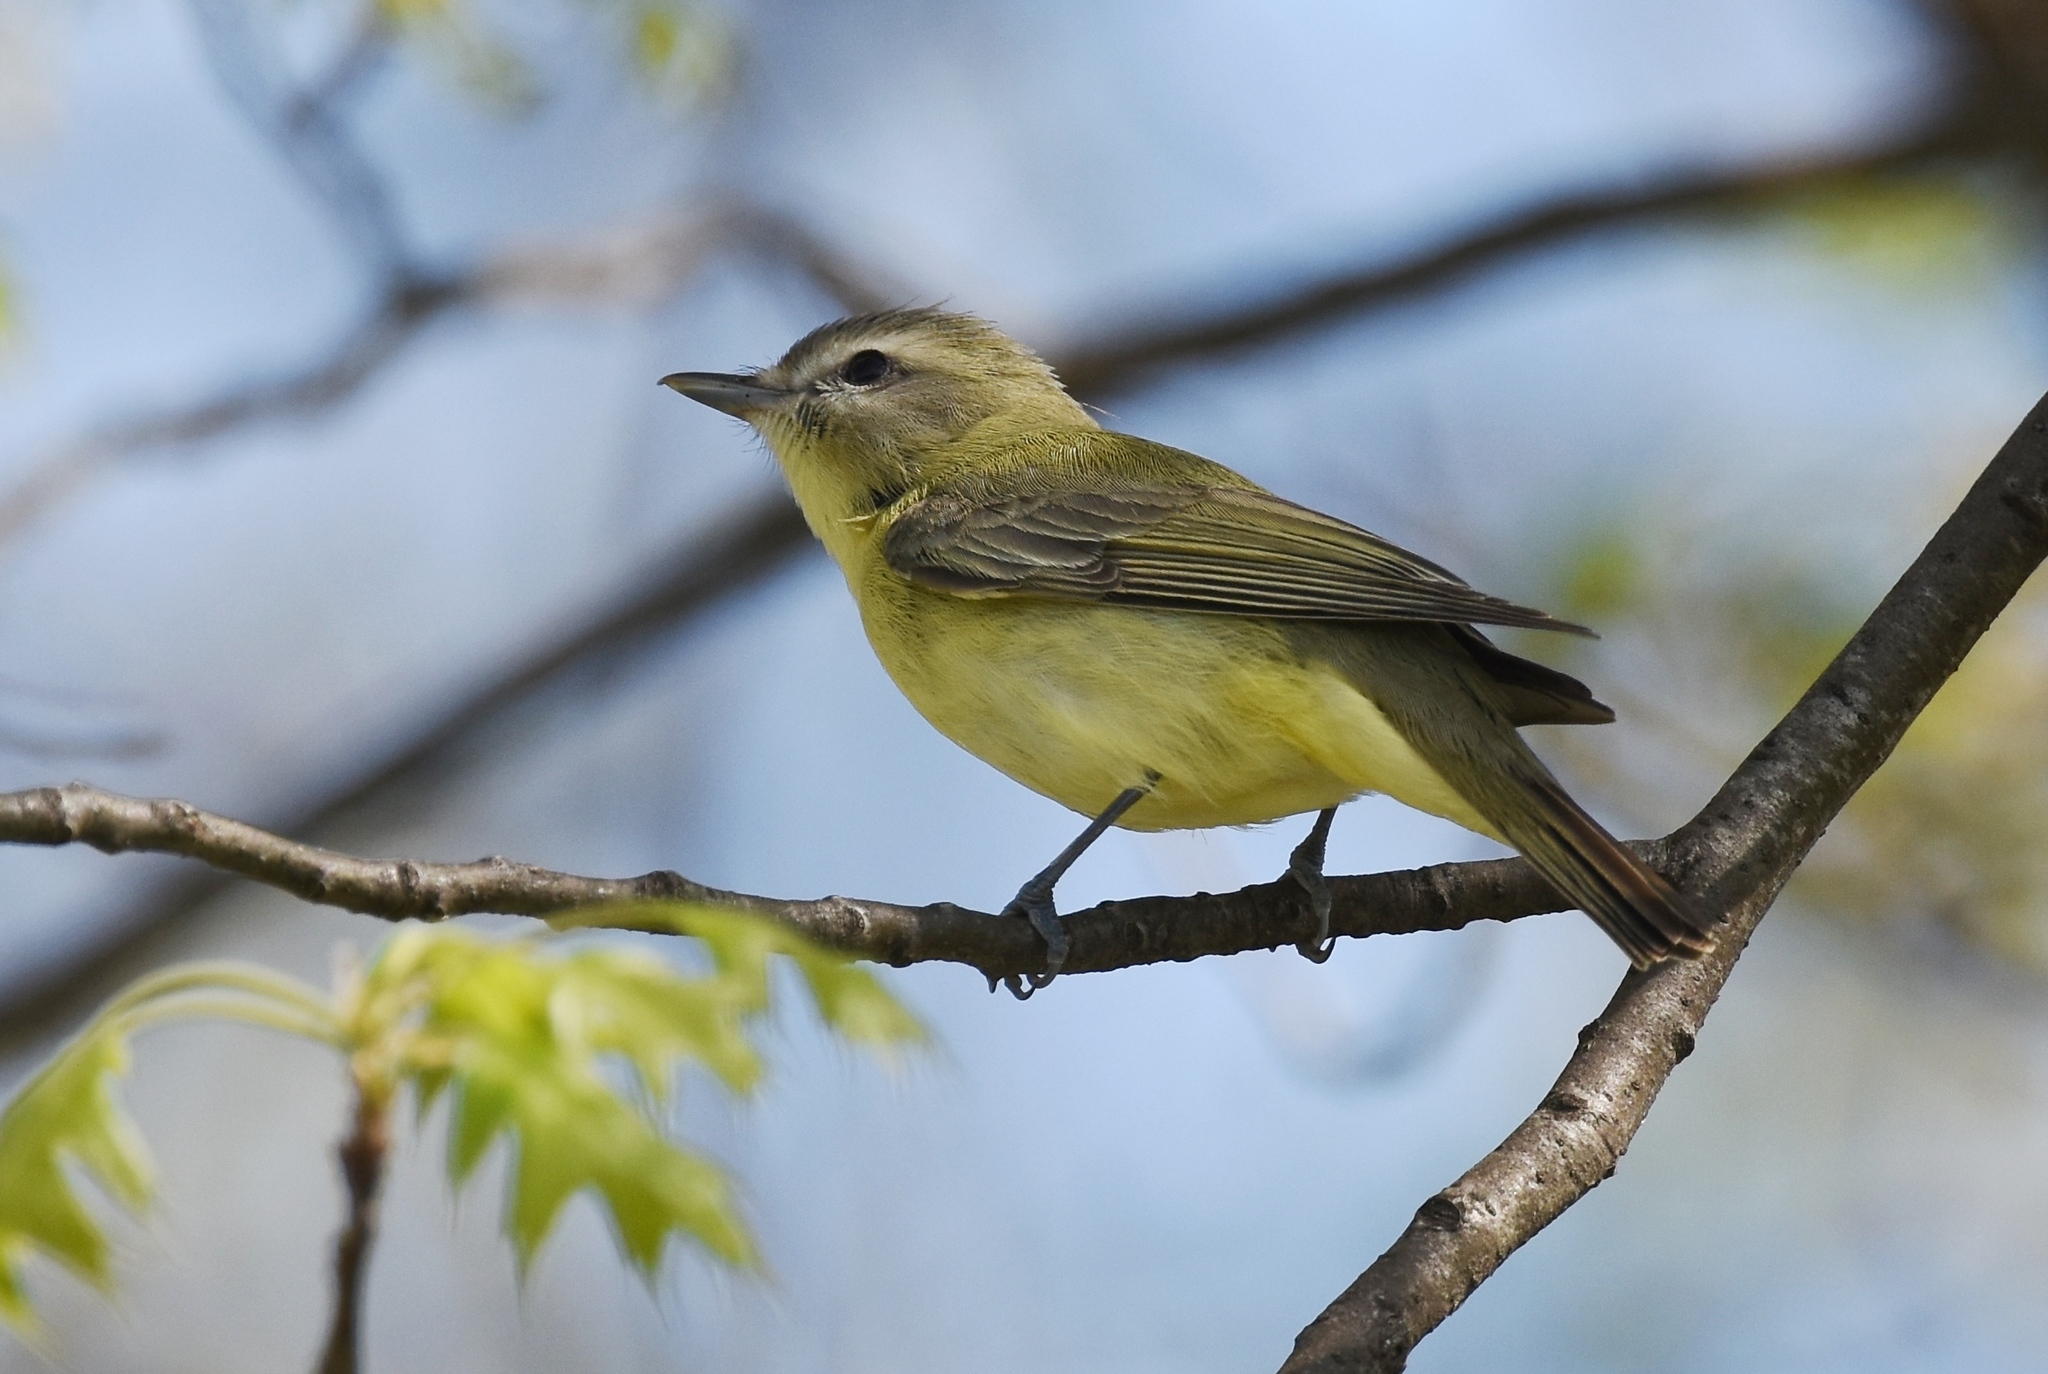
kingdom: Animalia
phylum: Chordata
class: Aves
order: Passeriformes
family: Vireonidae
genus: Vireo
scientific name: Vireo philadelphicus
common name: Philadelphia vireo
